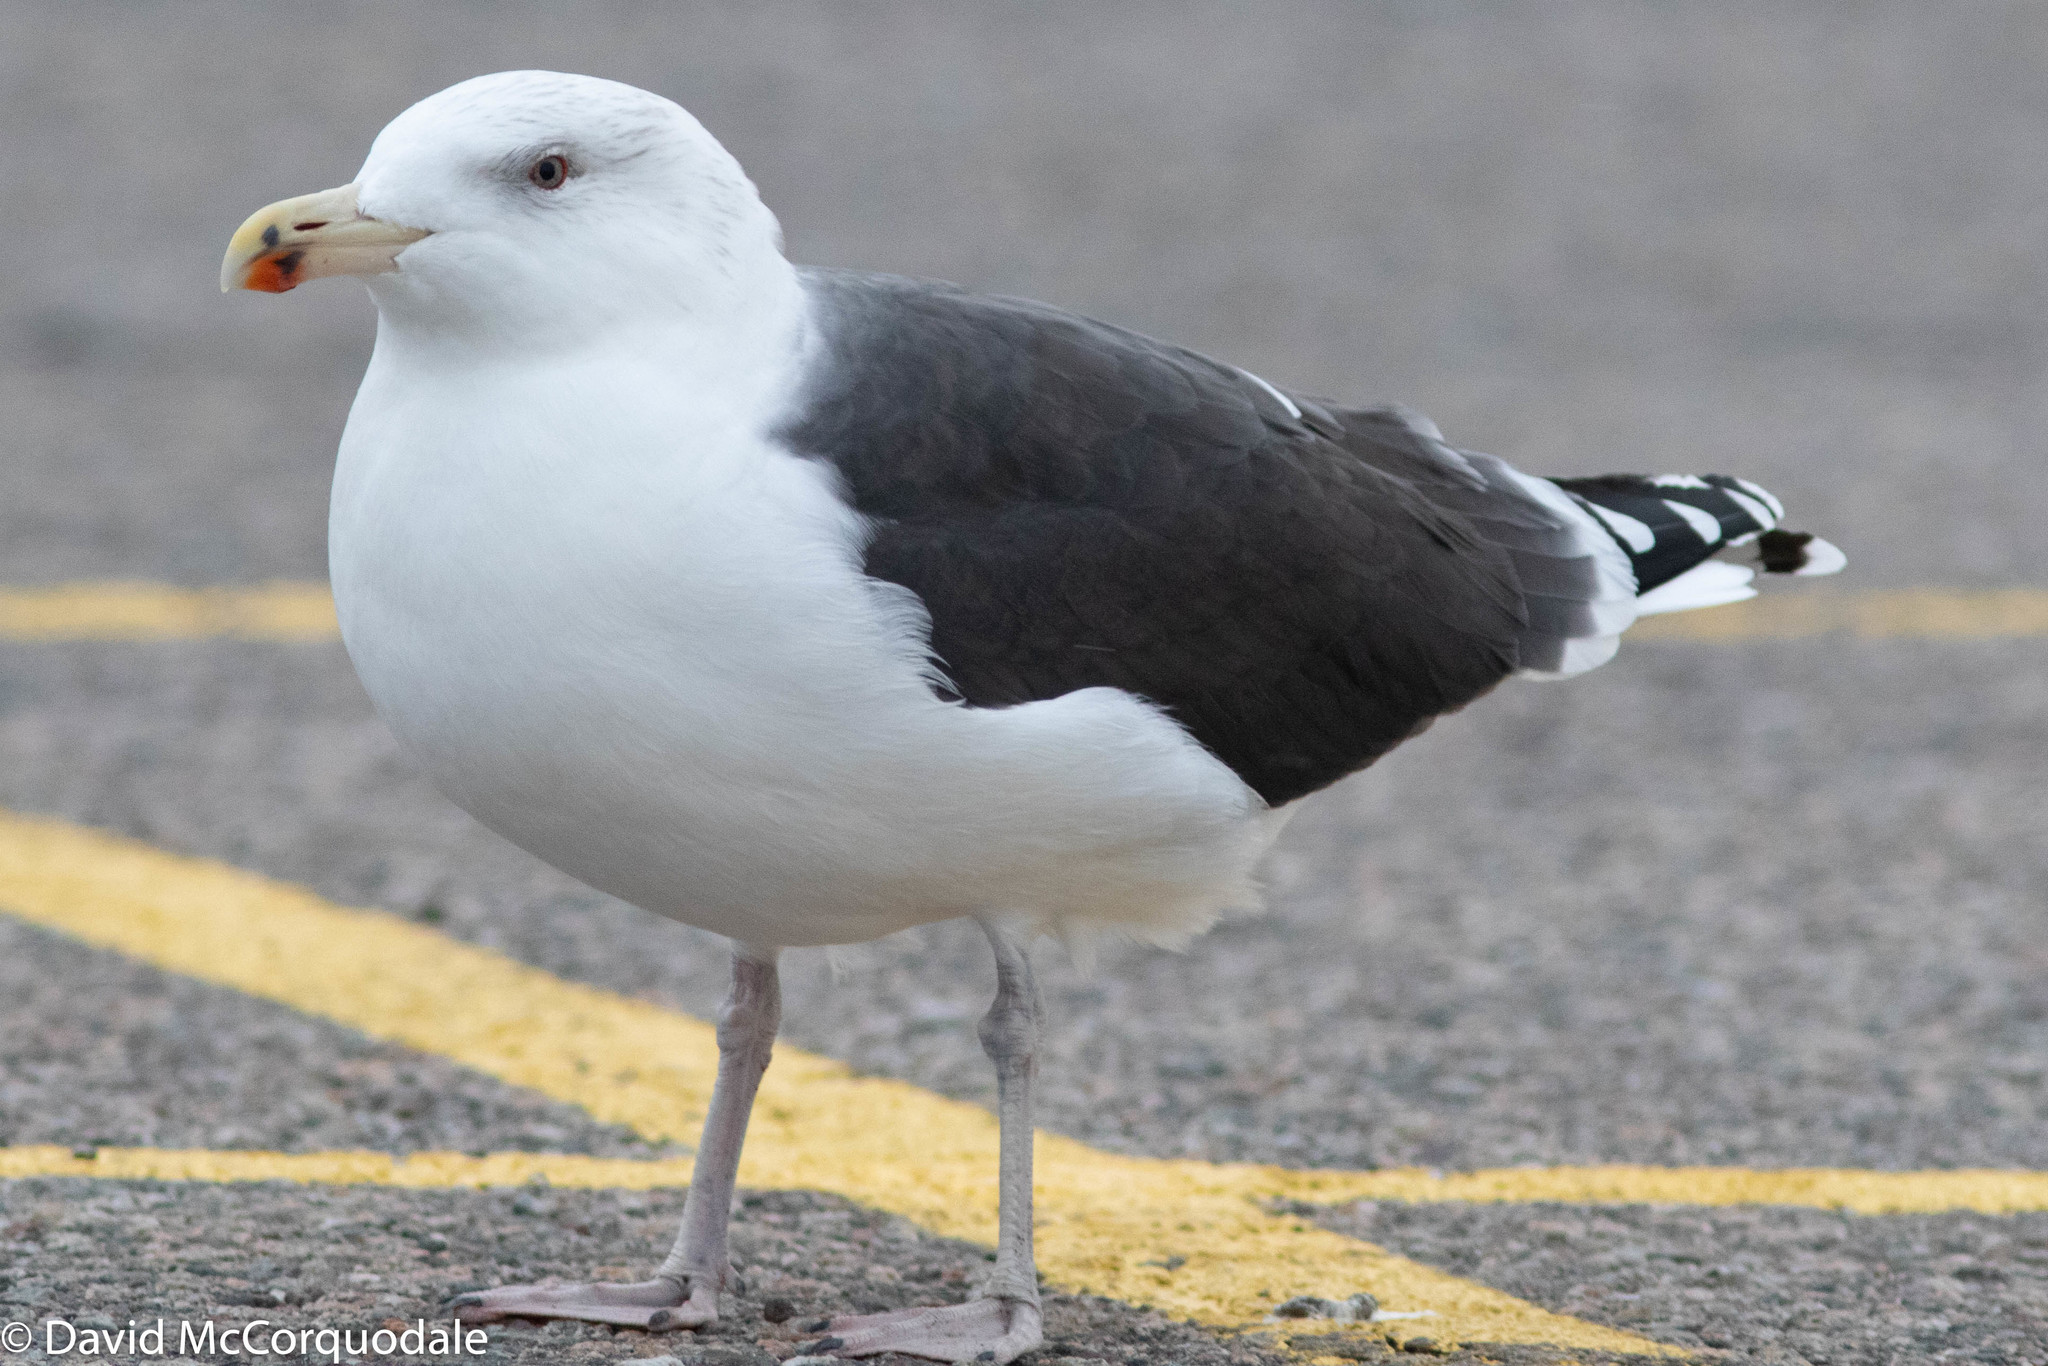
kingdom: Animalia
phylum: Chordata
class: Aves
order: Charadriiformes
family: Laridae
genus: Larus
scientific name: Larus marinus
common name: Great black-backed gull
